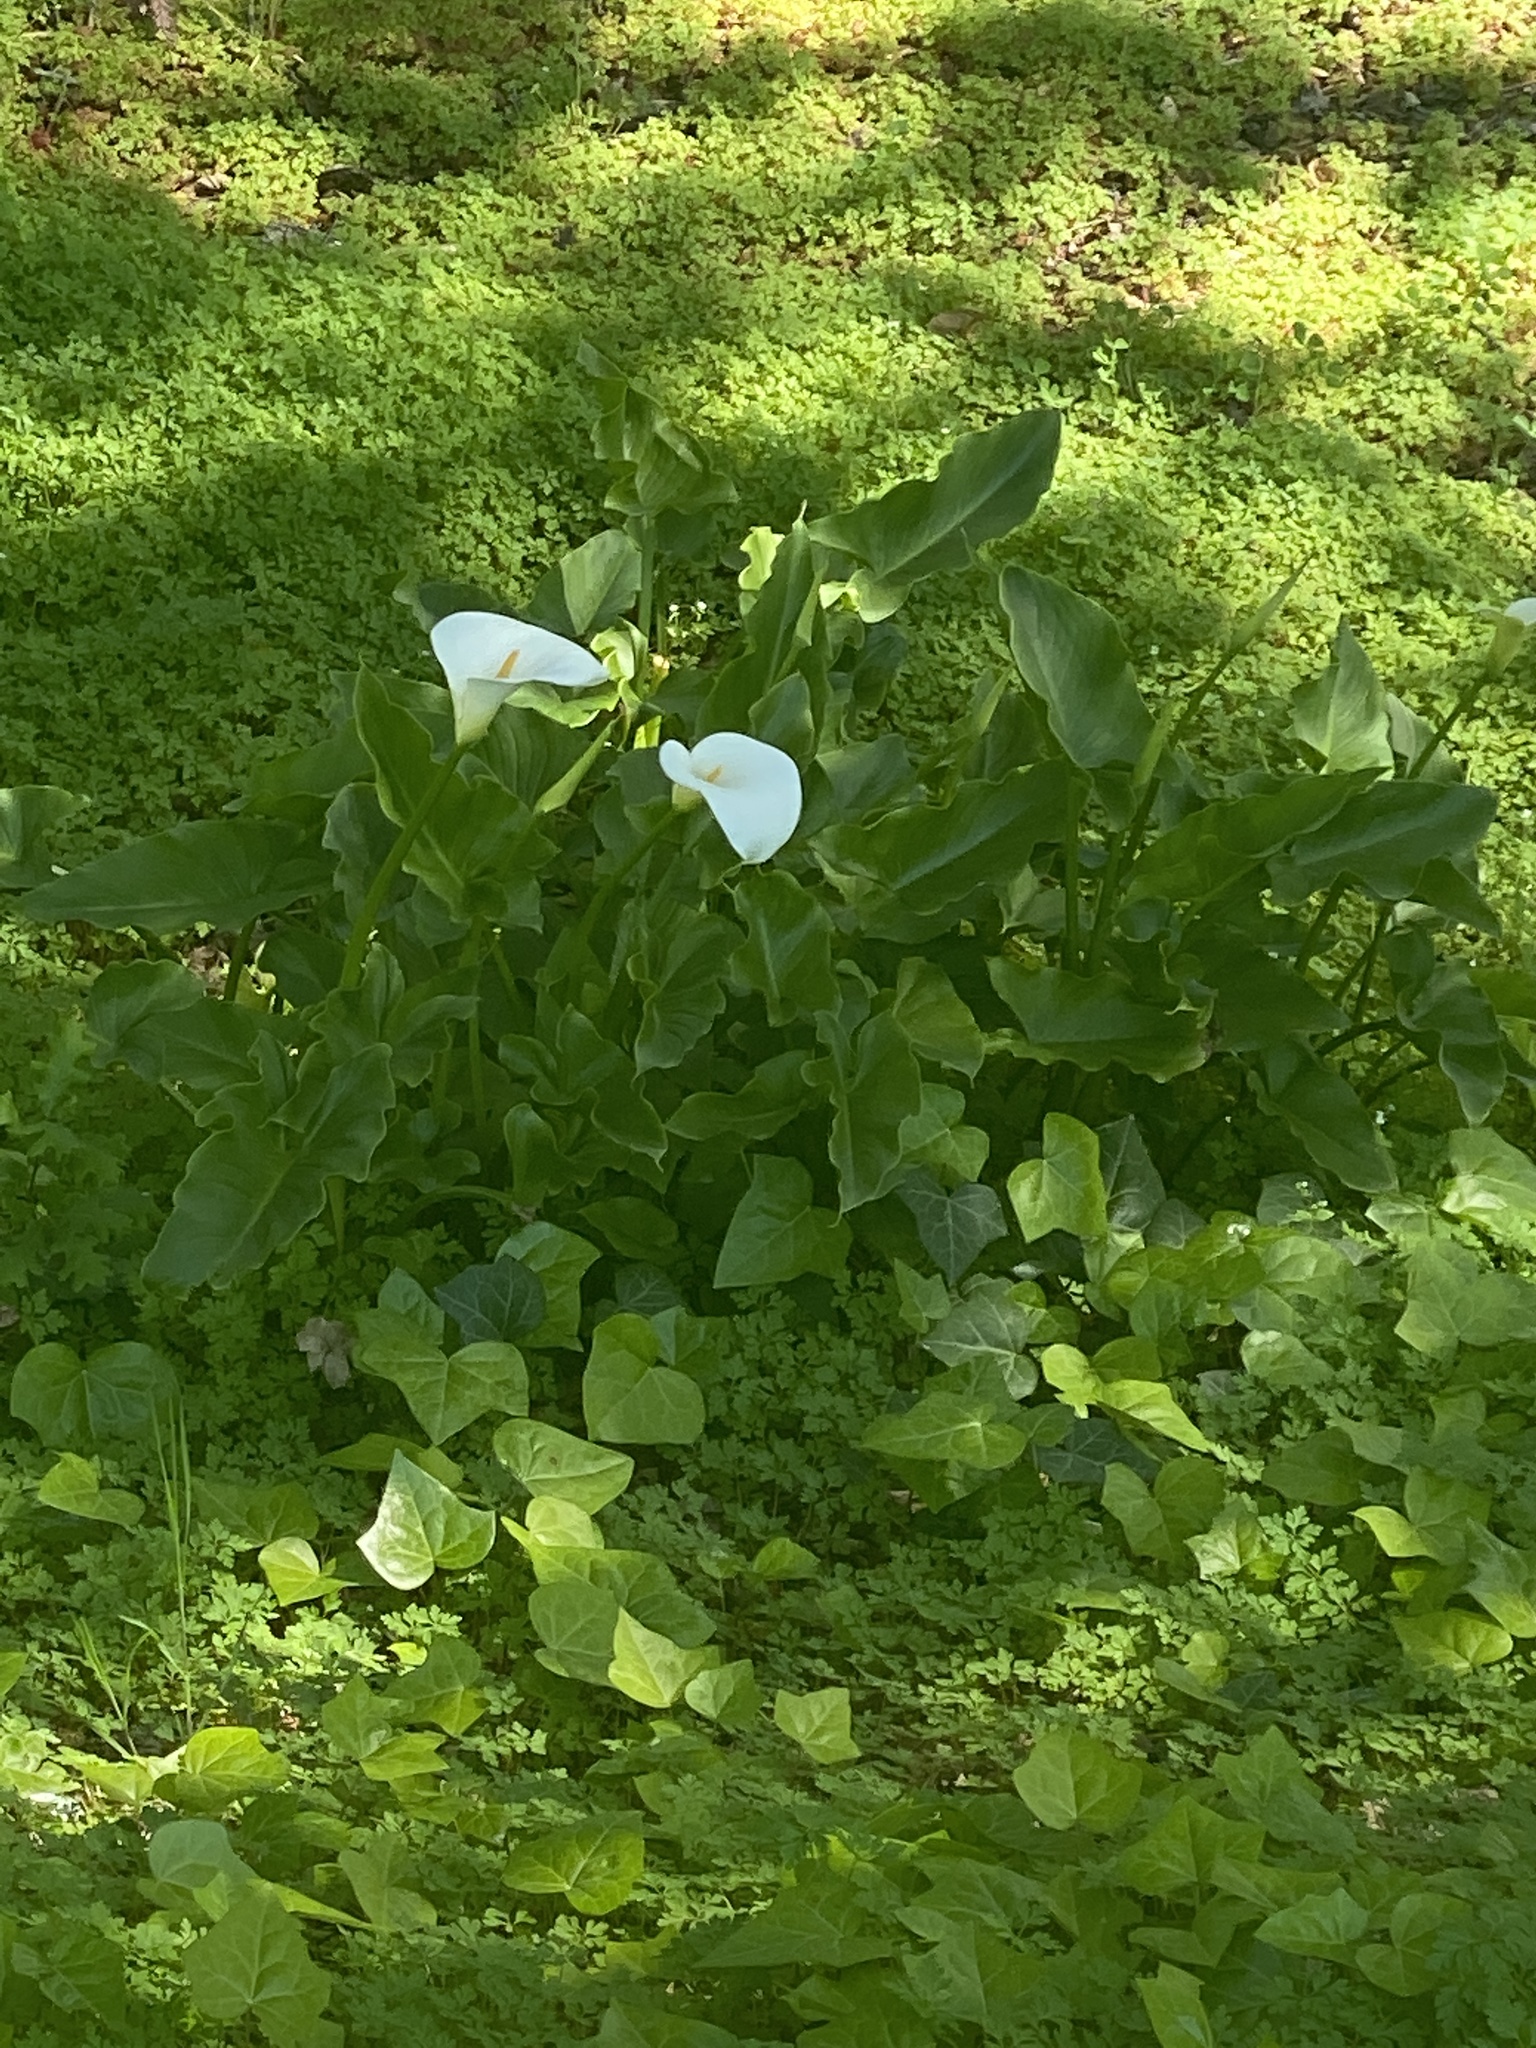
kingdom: Plantae
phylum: Tracheophyta
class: Liliopsida
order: Alismatales
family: Araceae
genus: Zantedeschia
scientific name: Zantedeschia aethiopica
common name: Altar-lily
